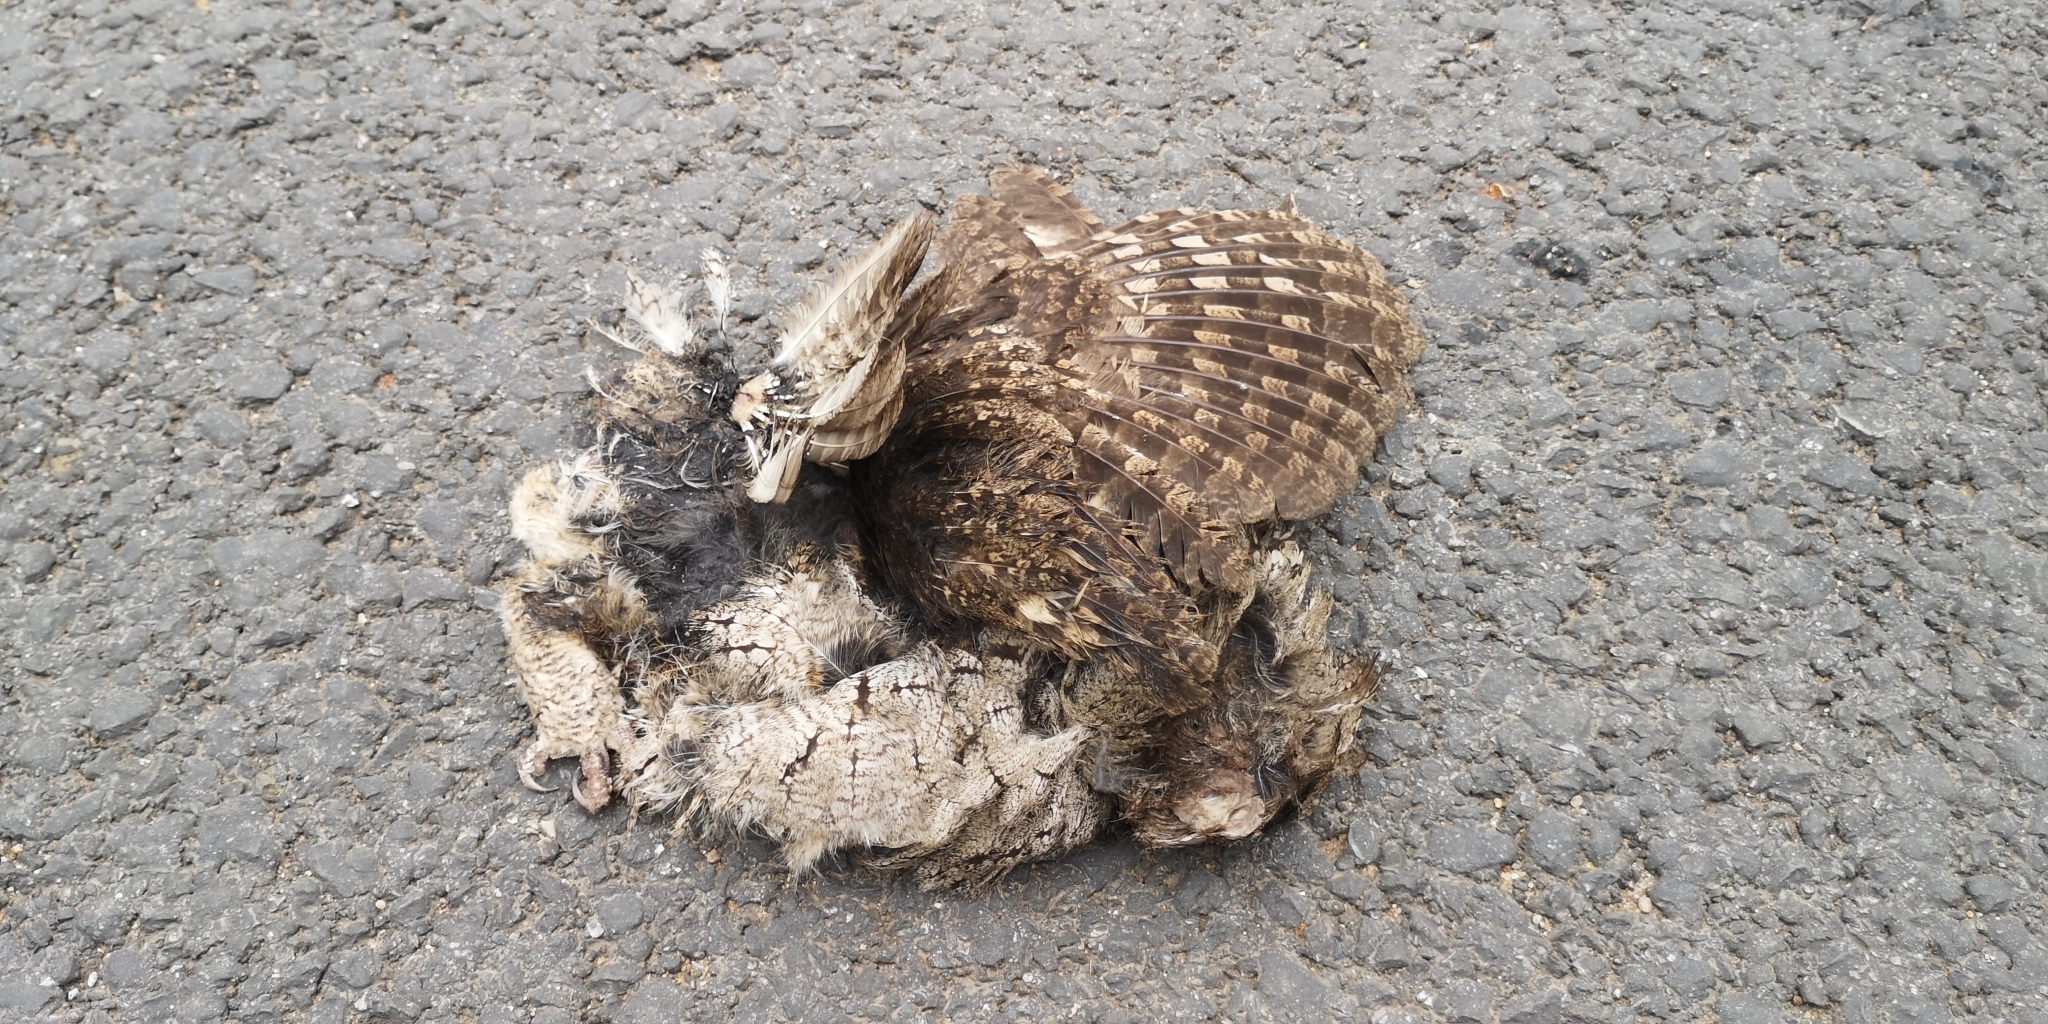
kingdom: Animalia
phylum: Chordata
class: Aves
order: Strigiformes
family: Strigidae
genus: Otus
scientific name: Otus lettia
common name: Collared scops owl
